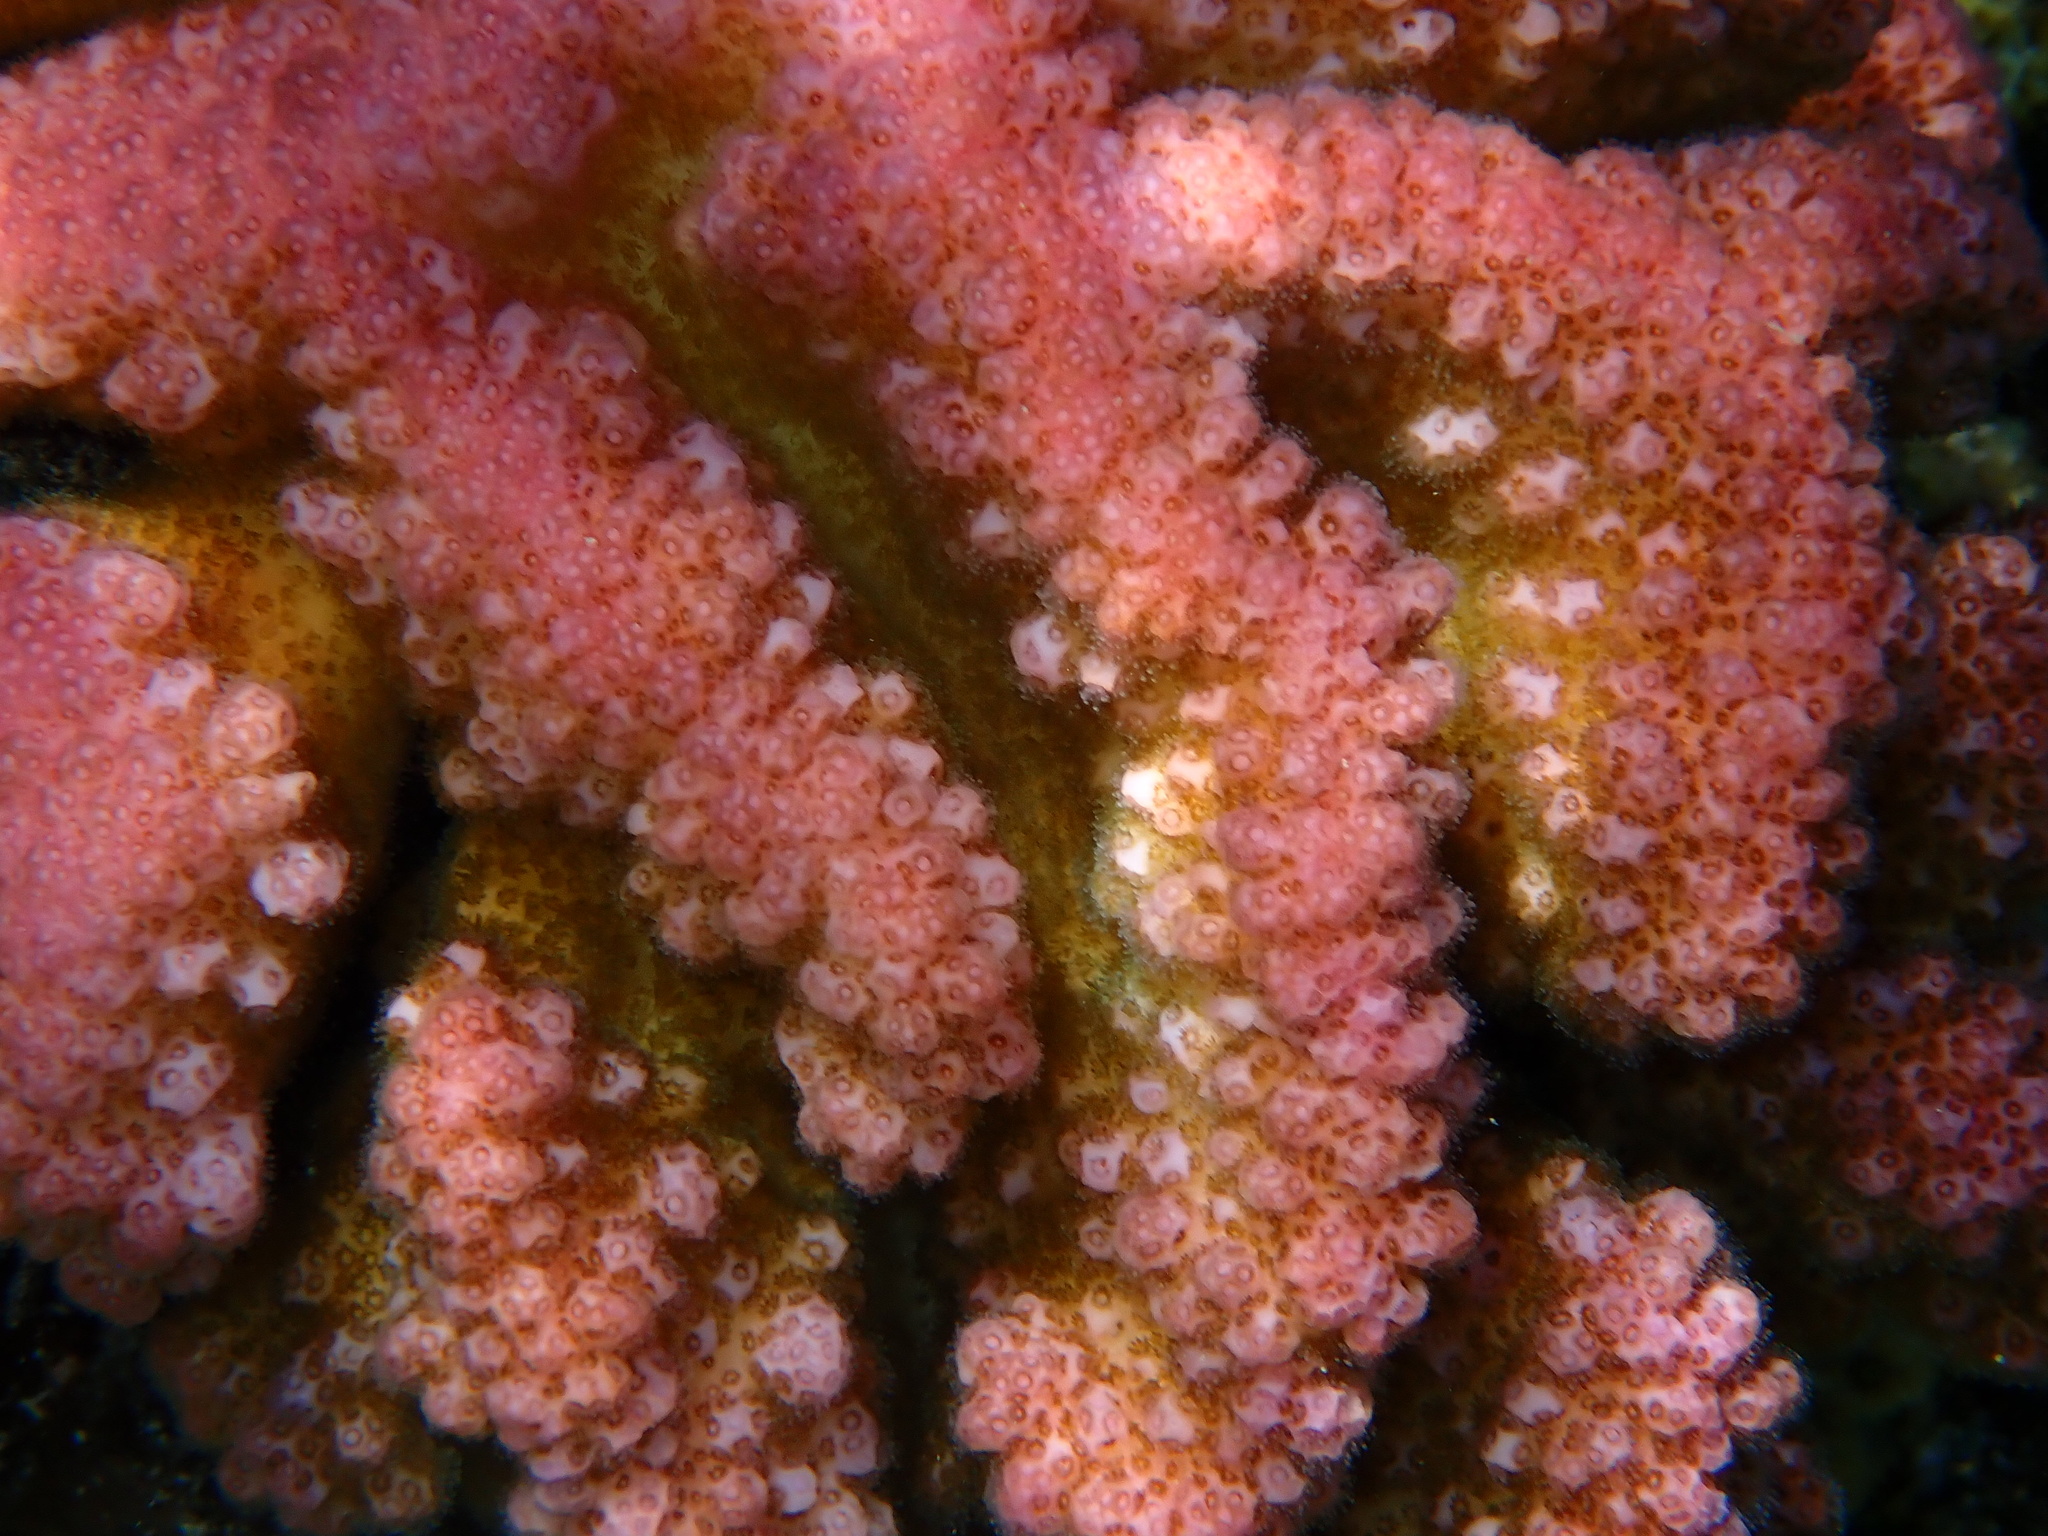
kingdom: Animalia
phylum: Cnidaria
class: Anthozoa
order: Scleractinia
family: Pocilloporidae
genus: Pocillopora
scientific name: Pocillopora verrucosa
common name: Cauliflower coral
